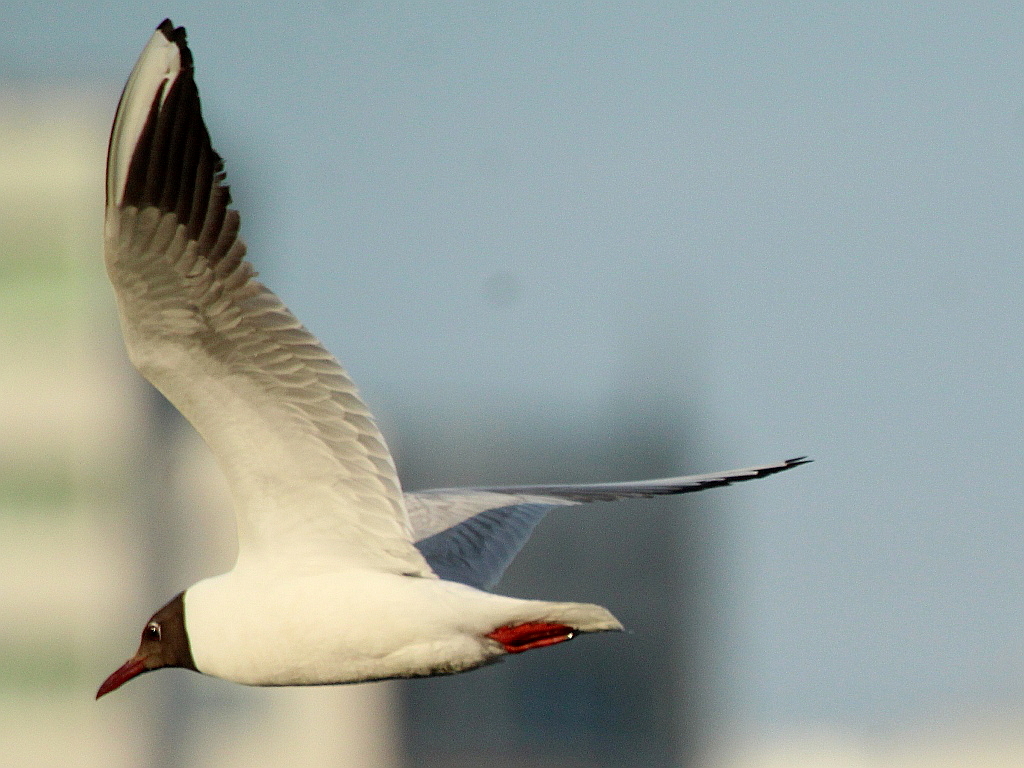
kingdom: Animalia
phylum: Chordata
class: Aves
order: Charadriiformes
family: Laridae
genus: Chroicocephalus
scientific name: Chroicocephalus ridibundus
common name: Black-headed gull
